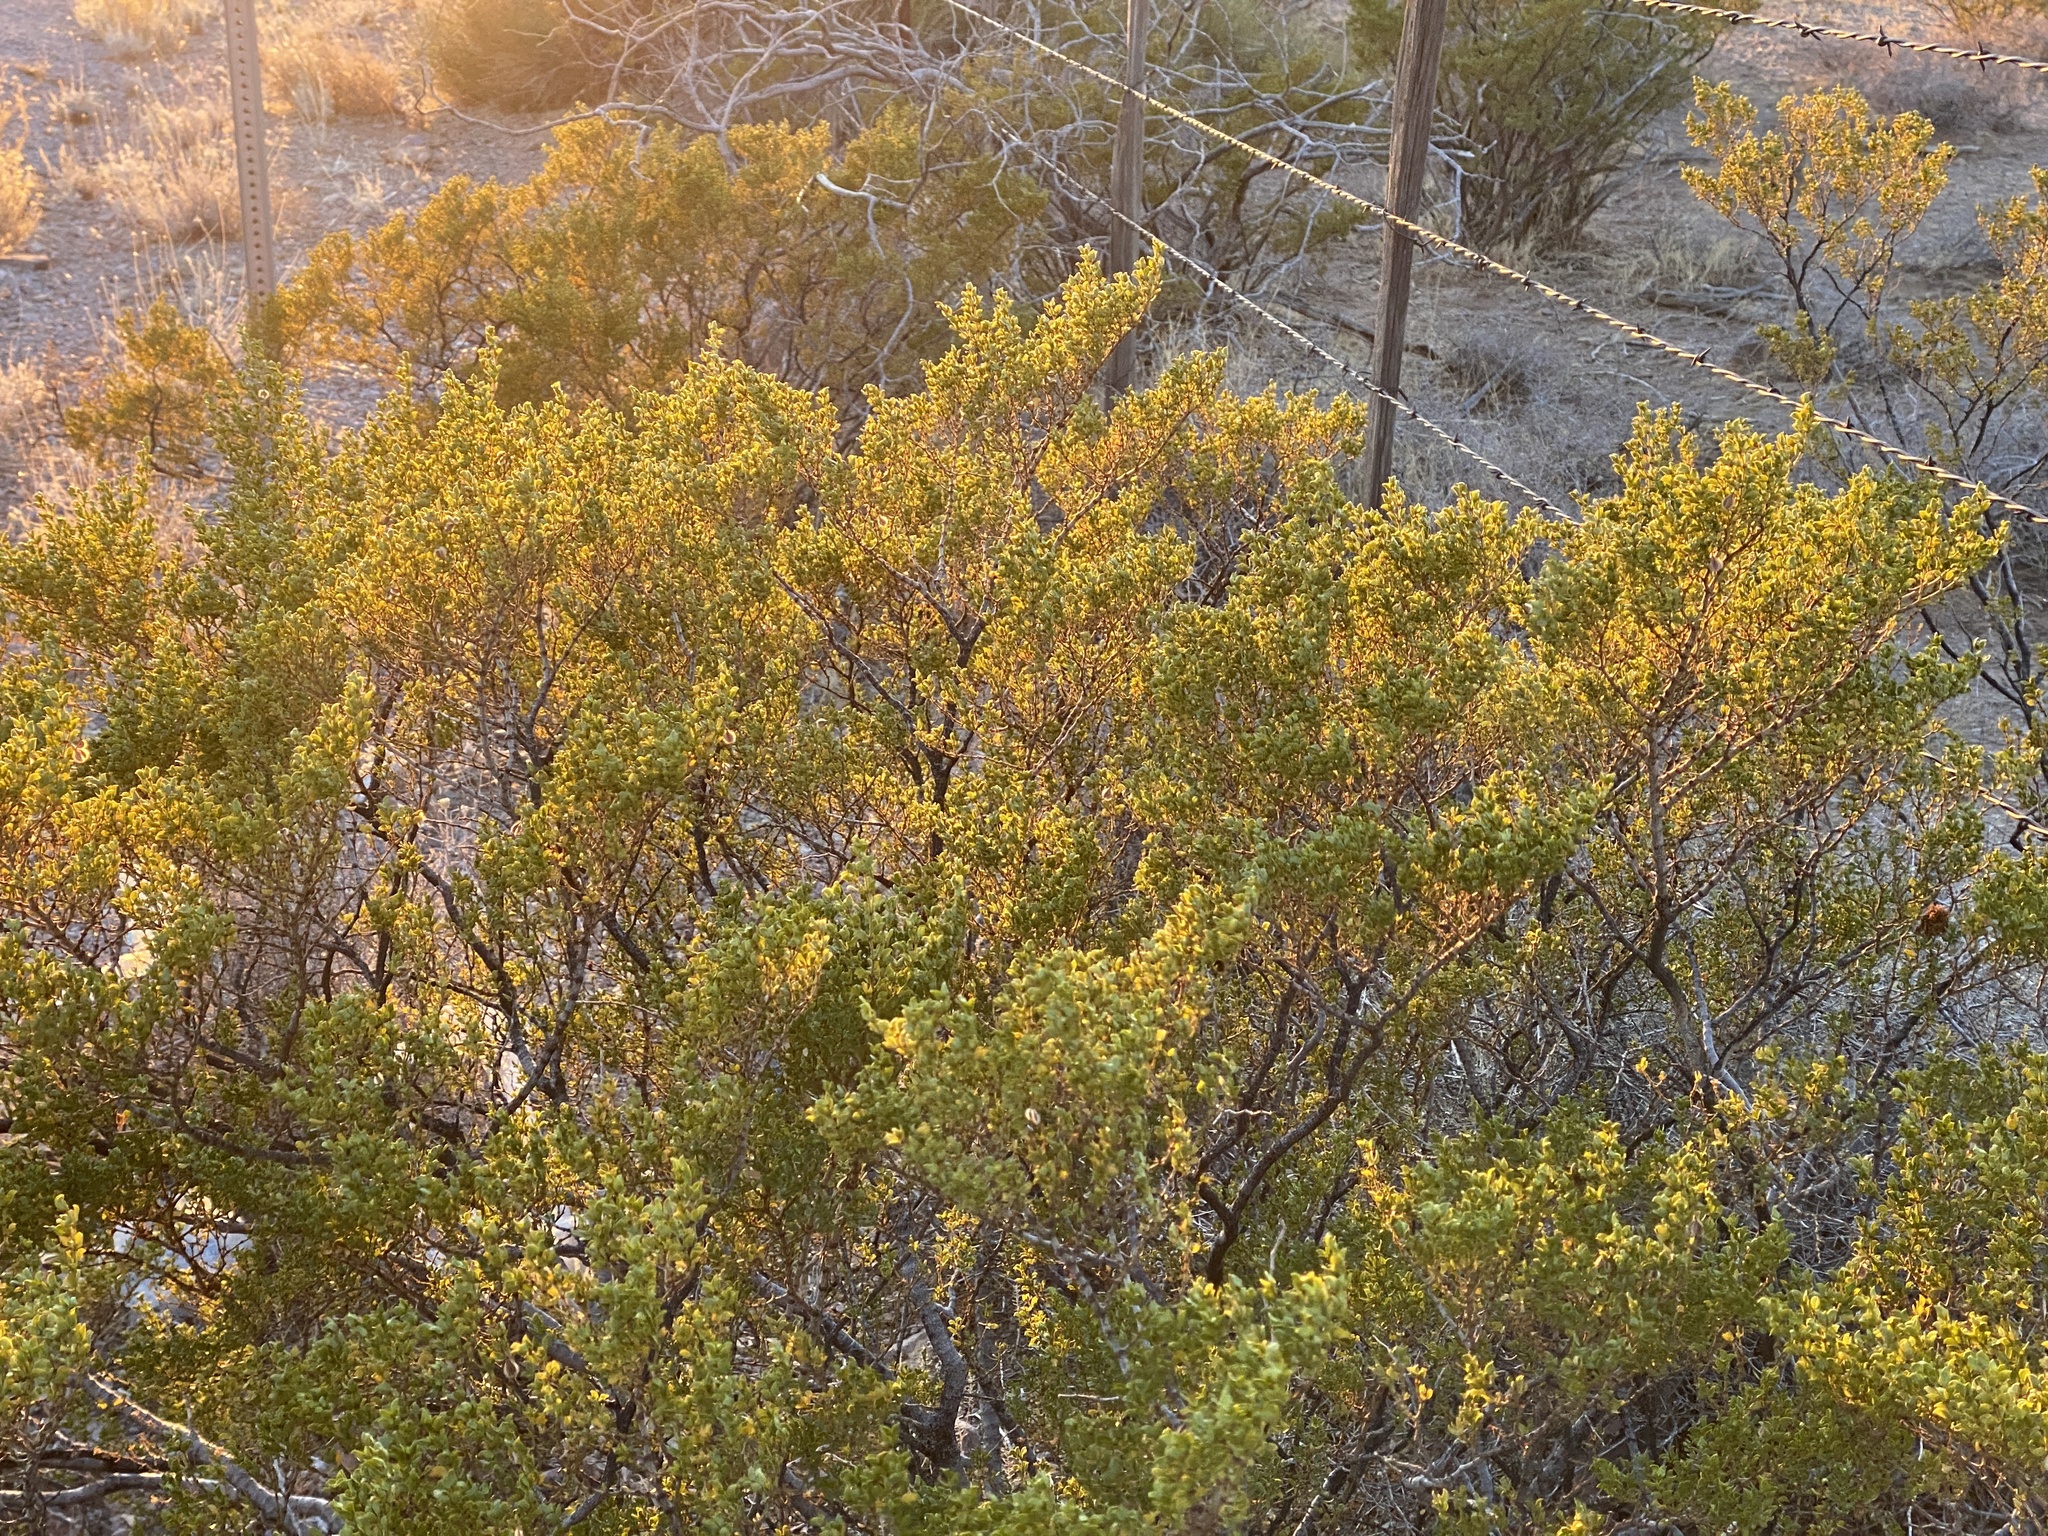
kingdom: Plantae
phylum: Tracheophyta
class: Magnoliopsida
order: Zygophyllales
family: Zygophyllaceae
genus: Larrea
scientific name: Larrea tridentata
